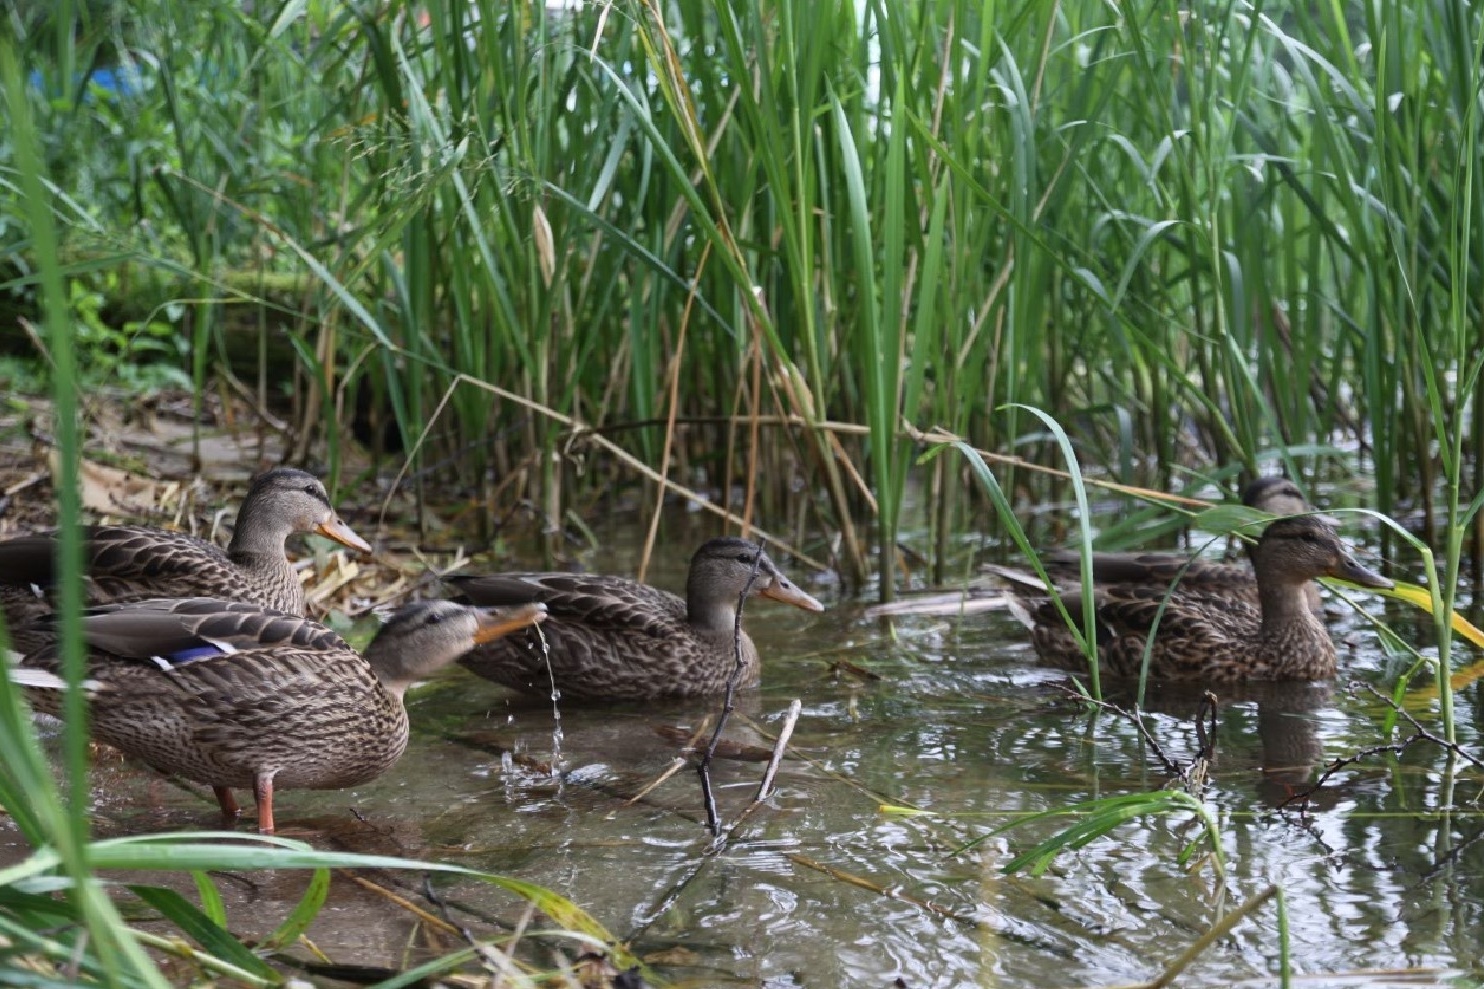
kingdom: Animalia
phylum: Chordata
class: Aves
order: Anseriformes
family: Anatidae
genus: Anas
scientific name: Anas platyrhynchos
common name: Mallard
